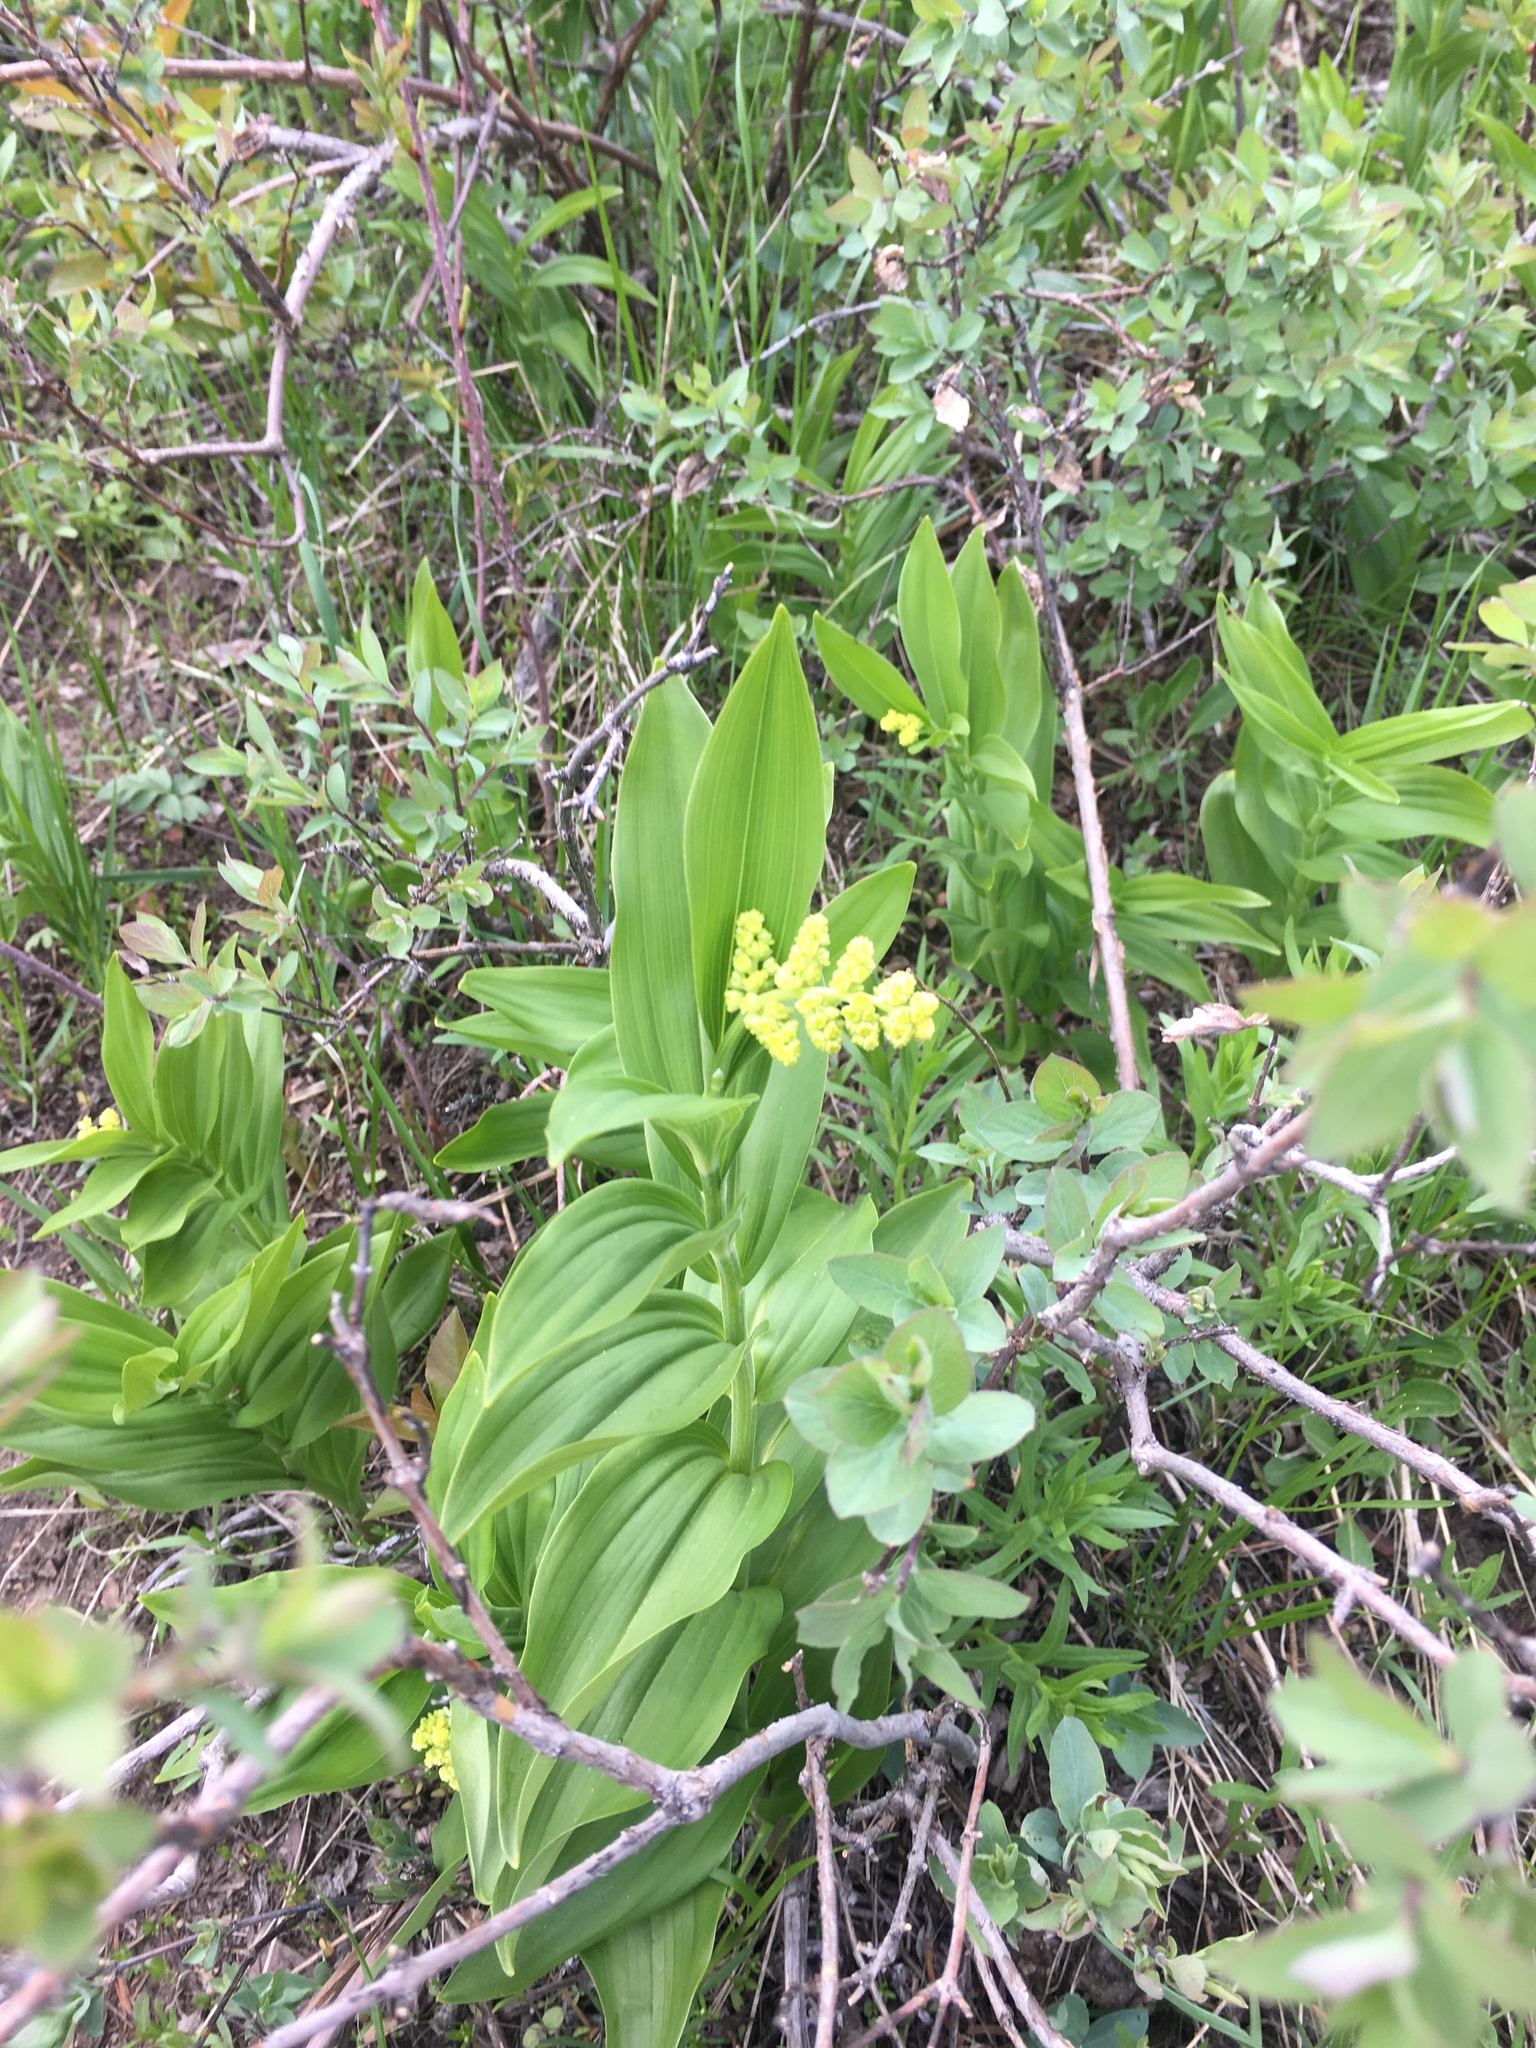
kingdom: Plantae
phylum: Tracheophyta
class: Liliopsida
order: Asparagales
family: Asparagaceae
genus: Maianthemum
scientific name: Maianthemum racemosum
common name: False spikenard
